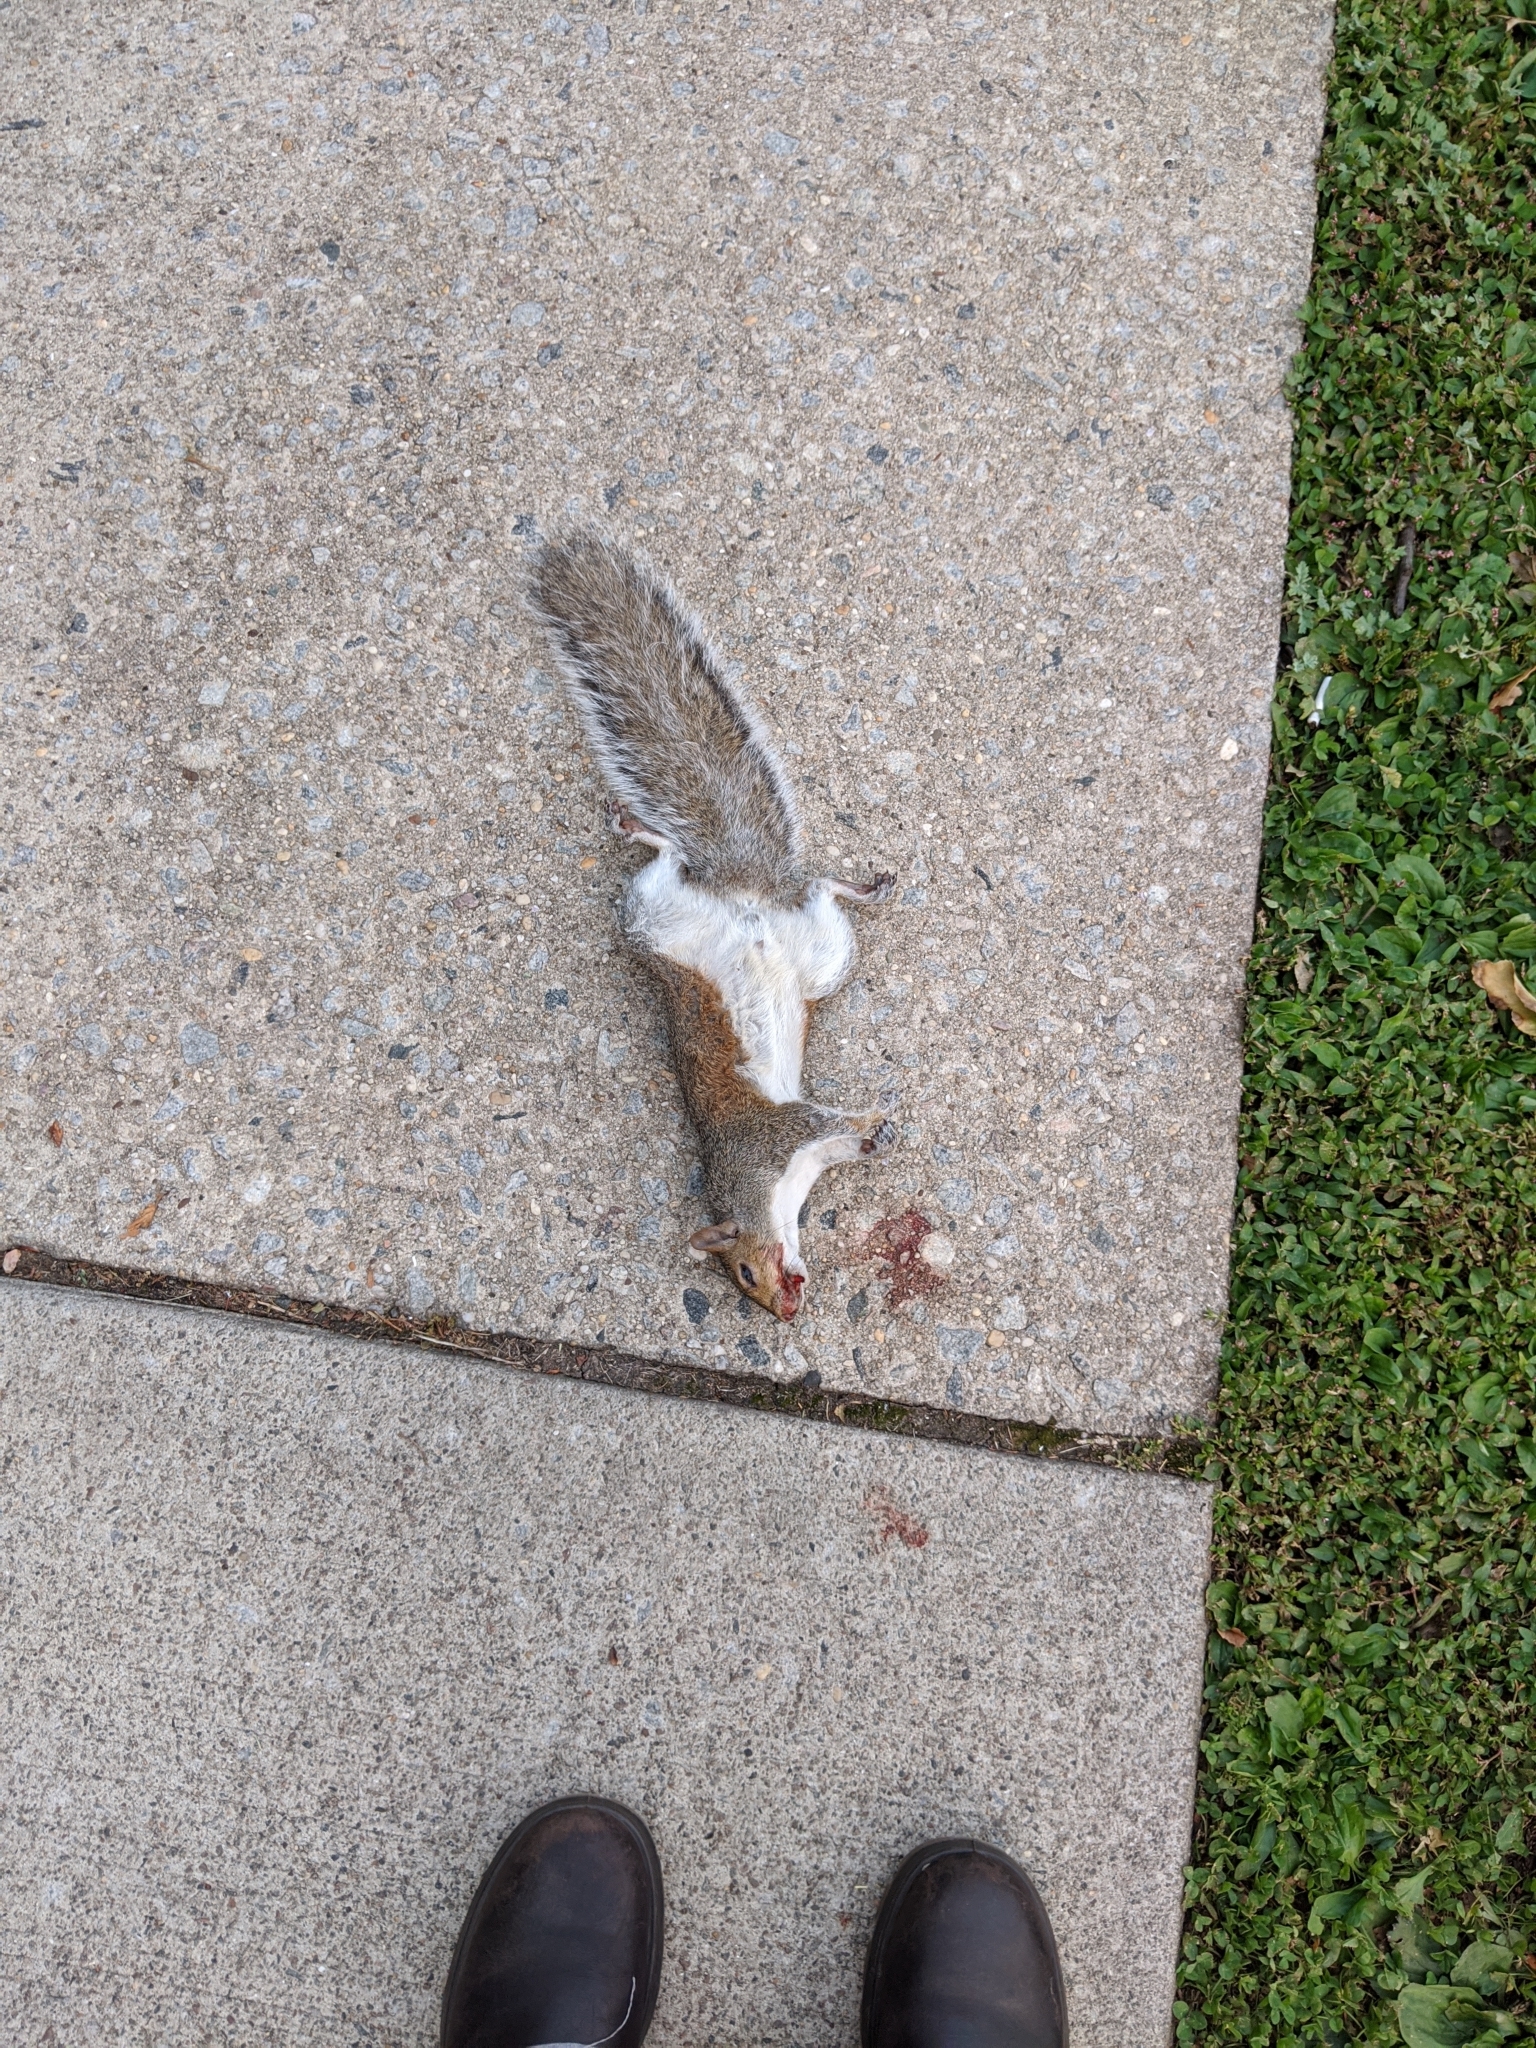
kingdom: Animalia
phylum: Chordata
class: Mammalia
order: Rodentia
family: Sciuridae
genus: Sciurus
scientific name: Sciurus carolinensis
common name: Eastern gray squirrel
